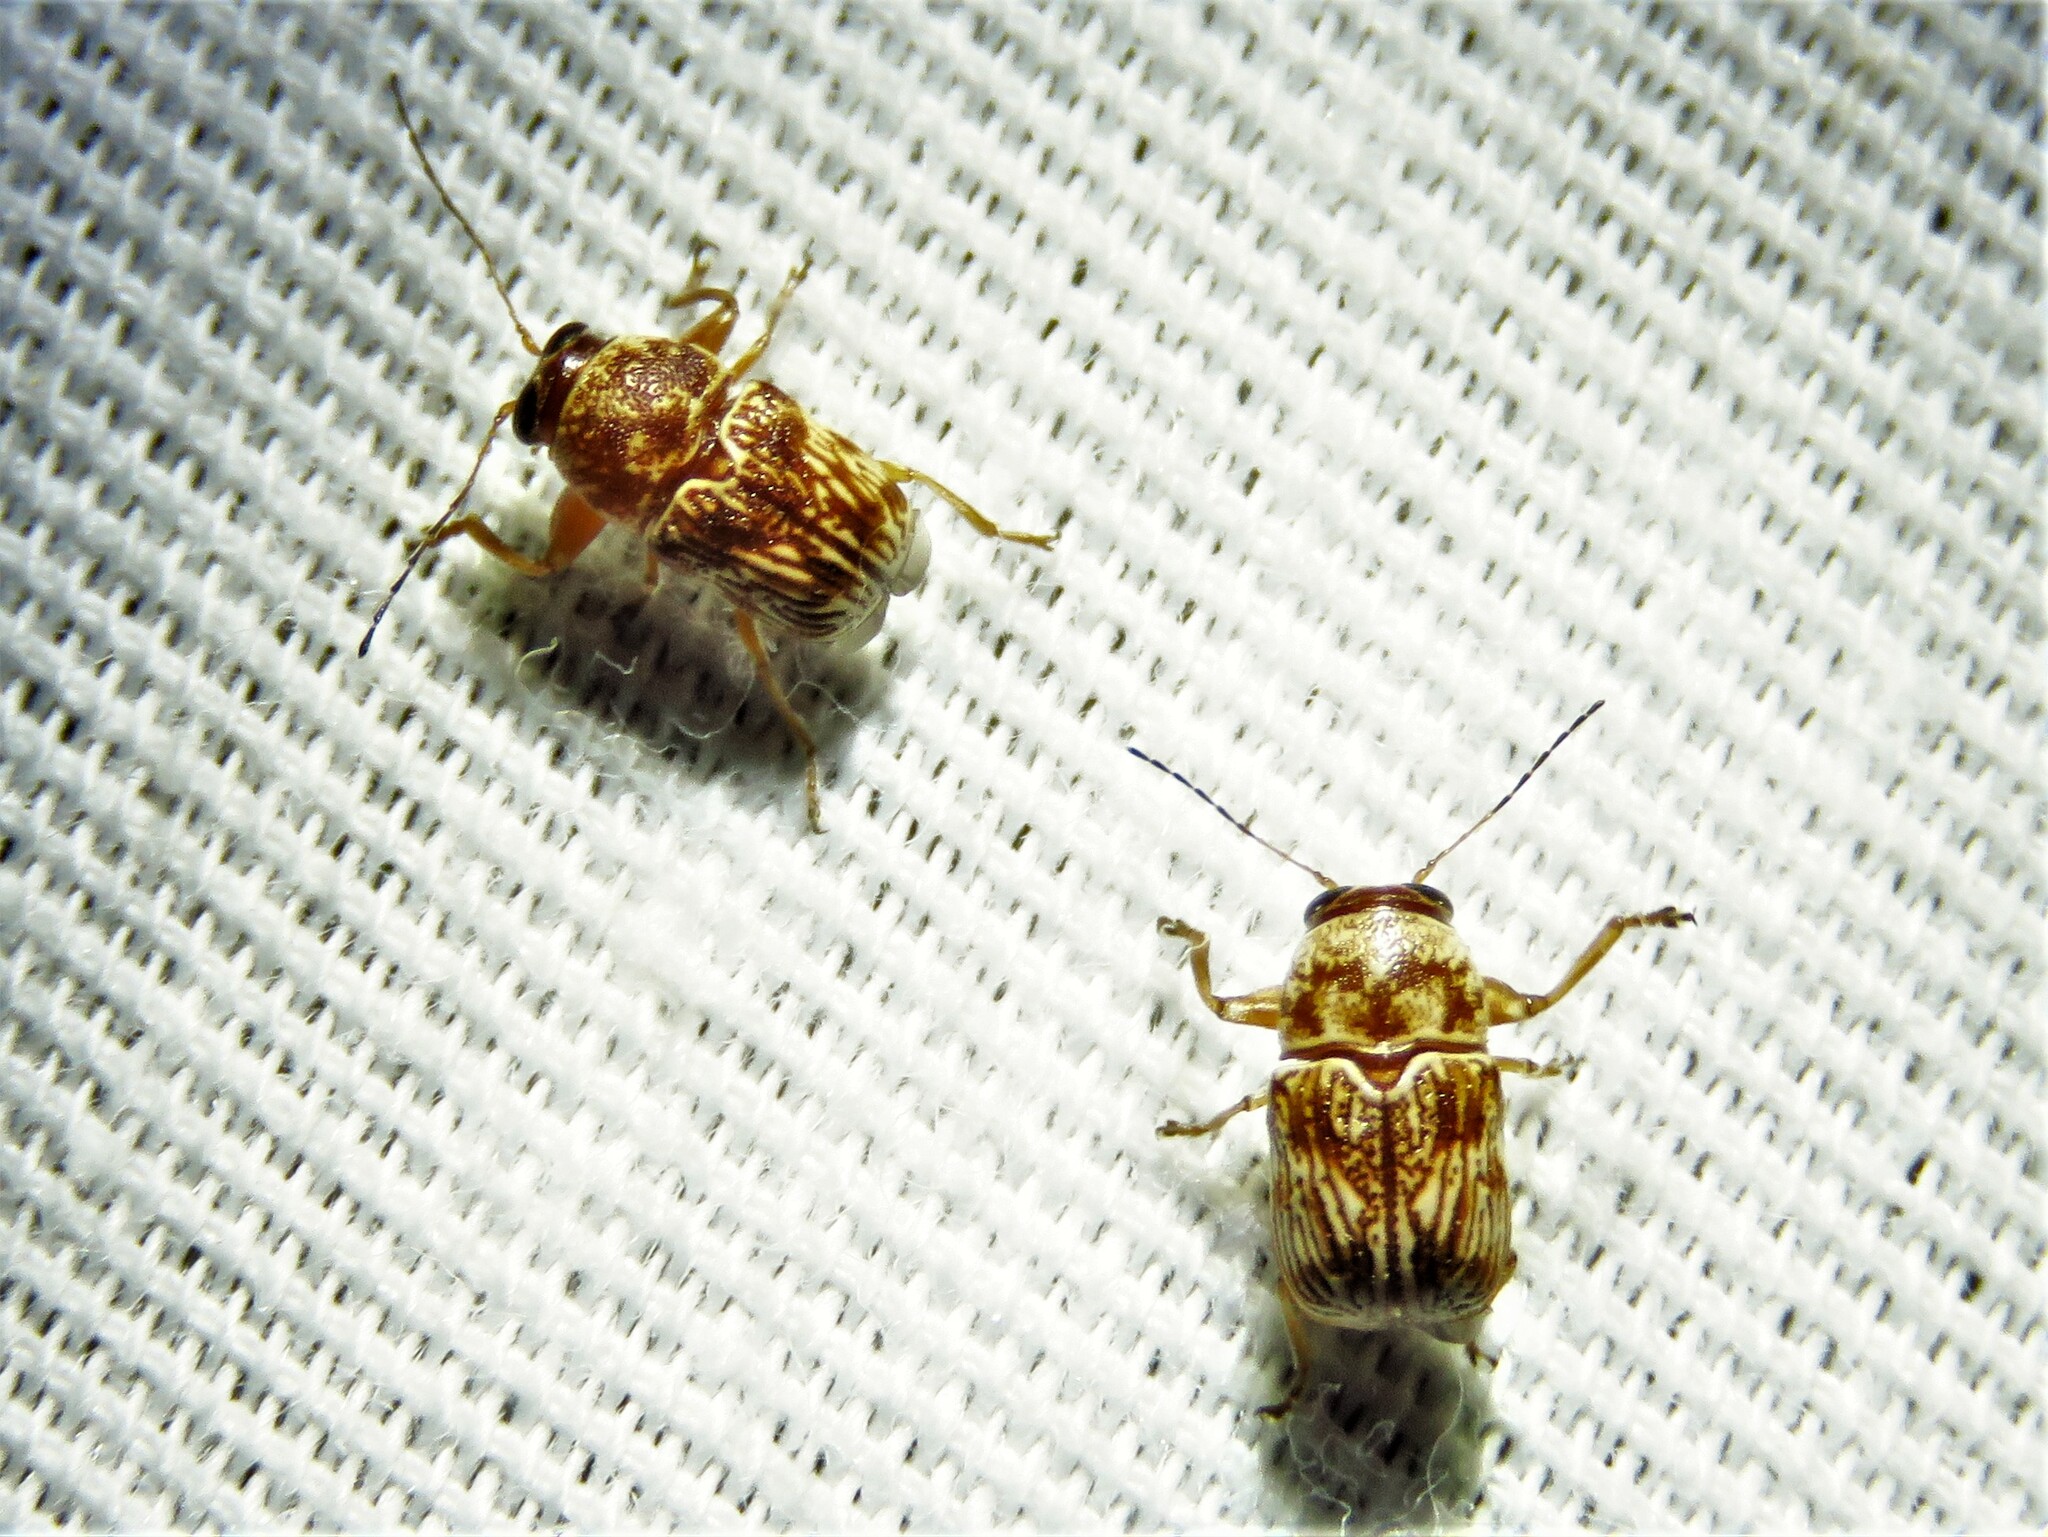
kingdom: Animalia
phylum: Arthropoda
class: Insecta
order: Coleoptera
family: Chrysomelidae
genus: Pachybrachis
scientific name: Pachybrachis
